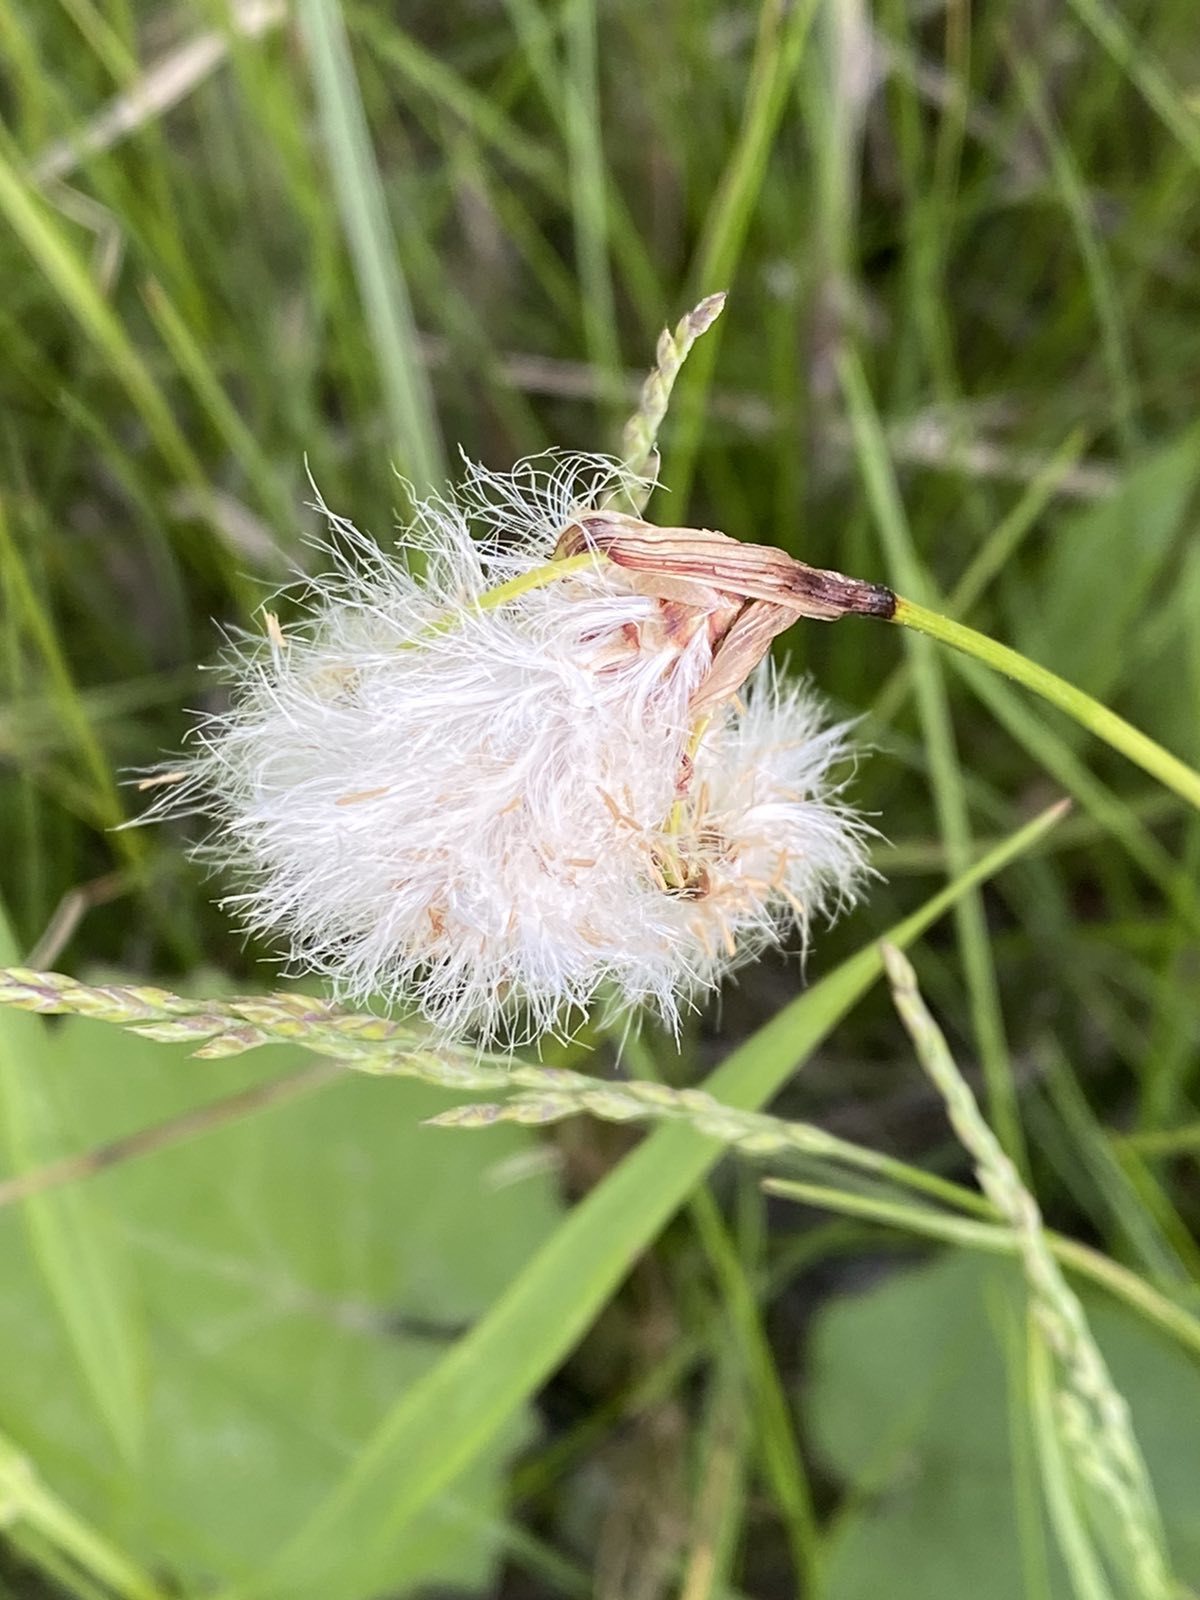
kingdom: Plantae
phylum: Tracheophyta
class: Liliopsida
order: Poales
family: Cyperaceae
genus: Eriophorum
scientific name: Eriophorum angustifolium
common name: Common cottongrass
